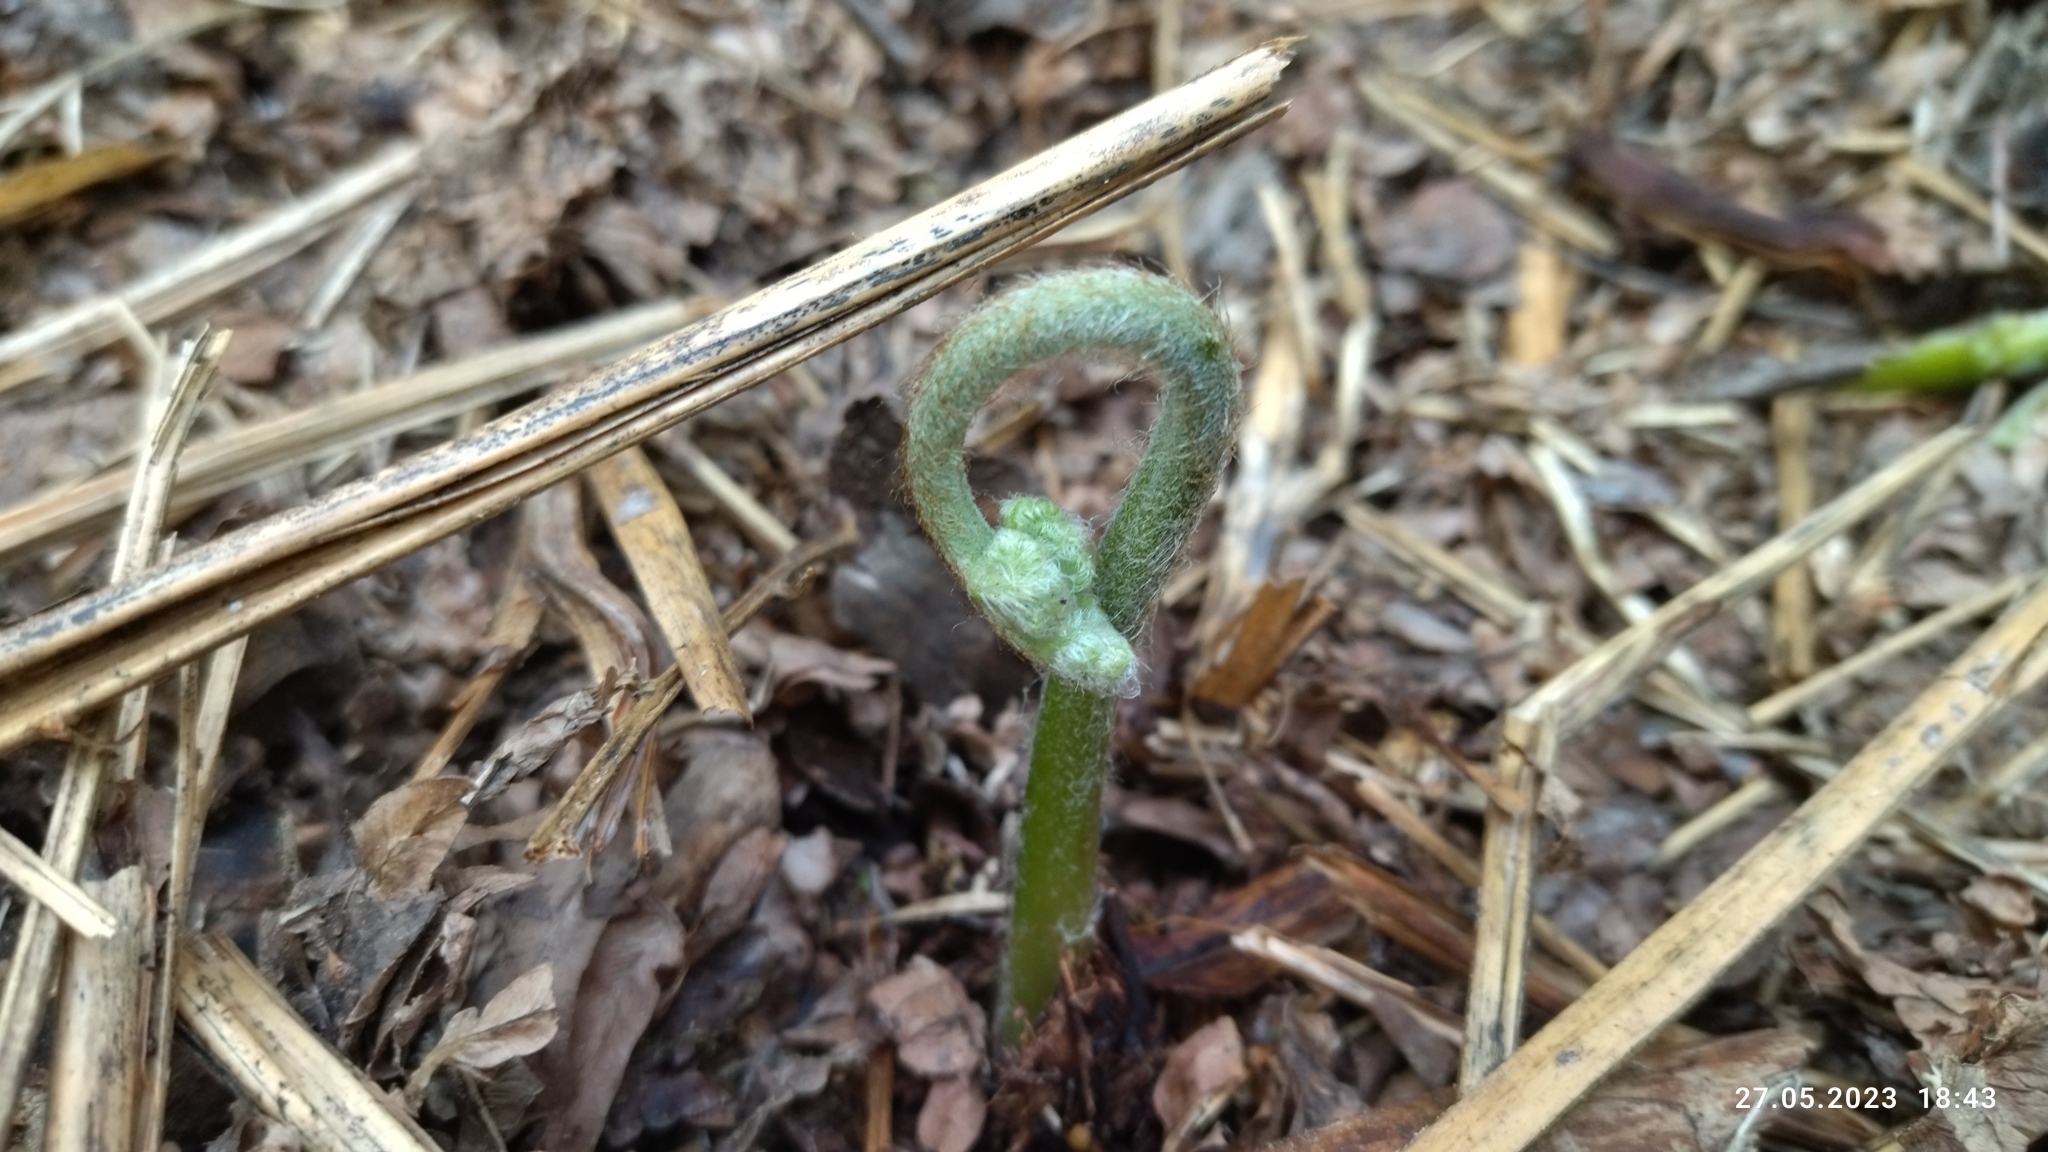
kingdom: Plantae
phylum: Tracheophyta
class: Polypodiopsida
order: Polypodiales
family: Dennstaedtiaceae
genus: Pteridium
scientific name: Pteridium aquilinum
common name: Bracken
